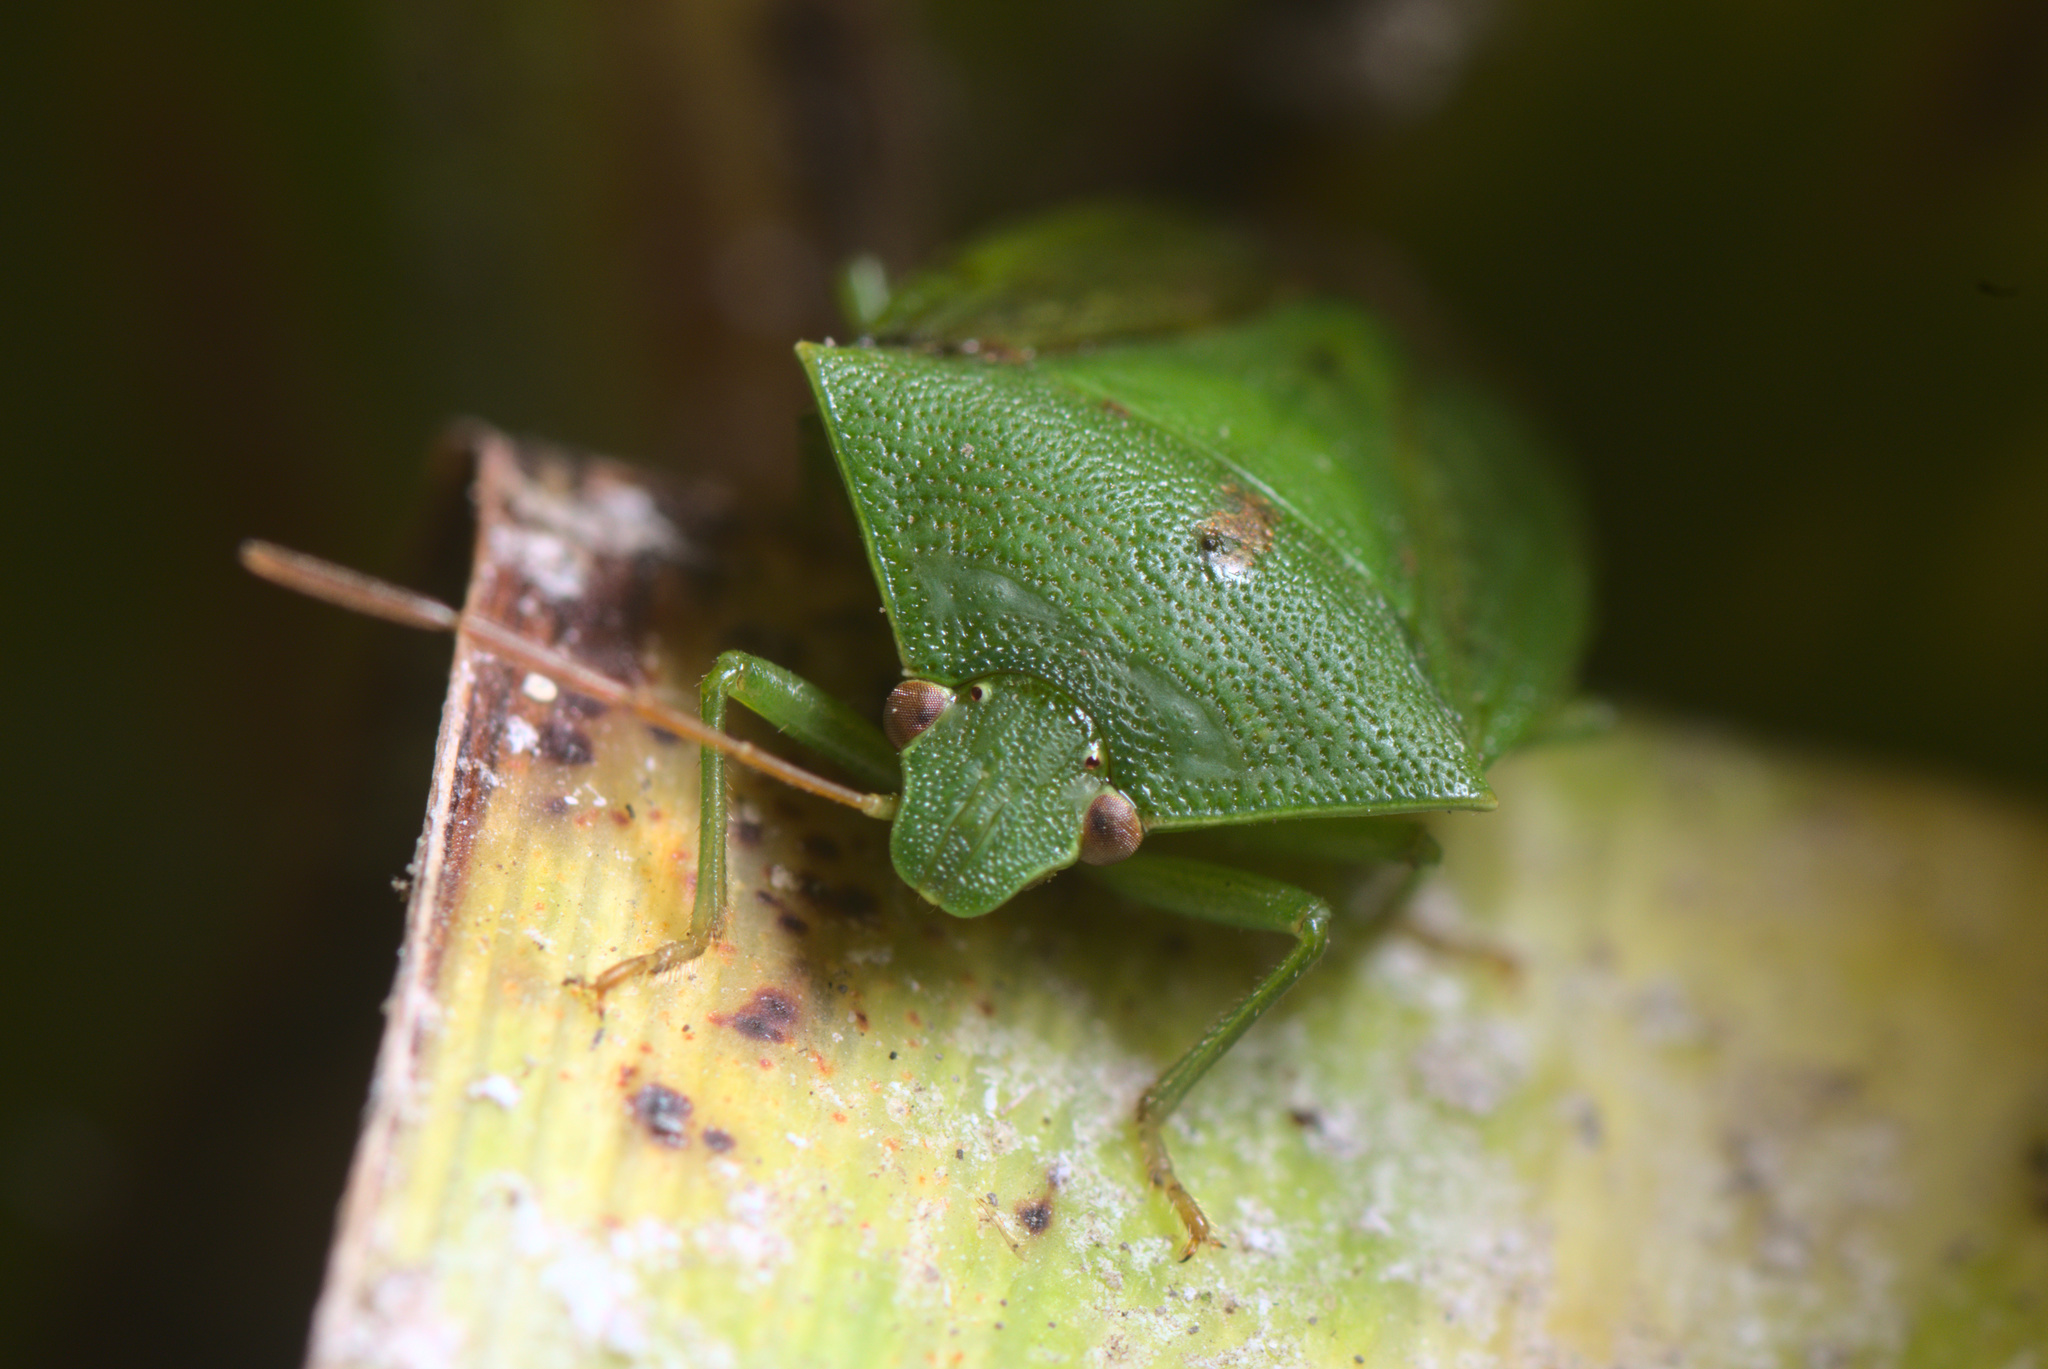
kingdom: Animalia
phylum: Arthropoda
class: Insecta
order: Hemiptera
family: Pentatomidae
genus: Cuspicona
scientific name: Cuspicona simplex
